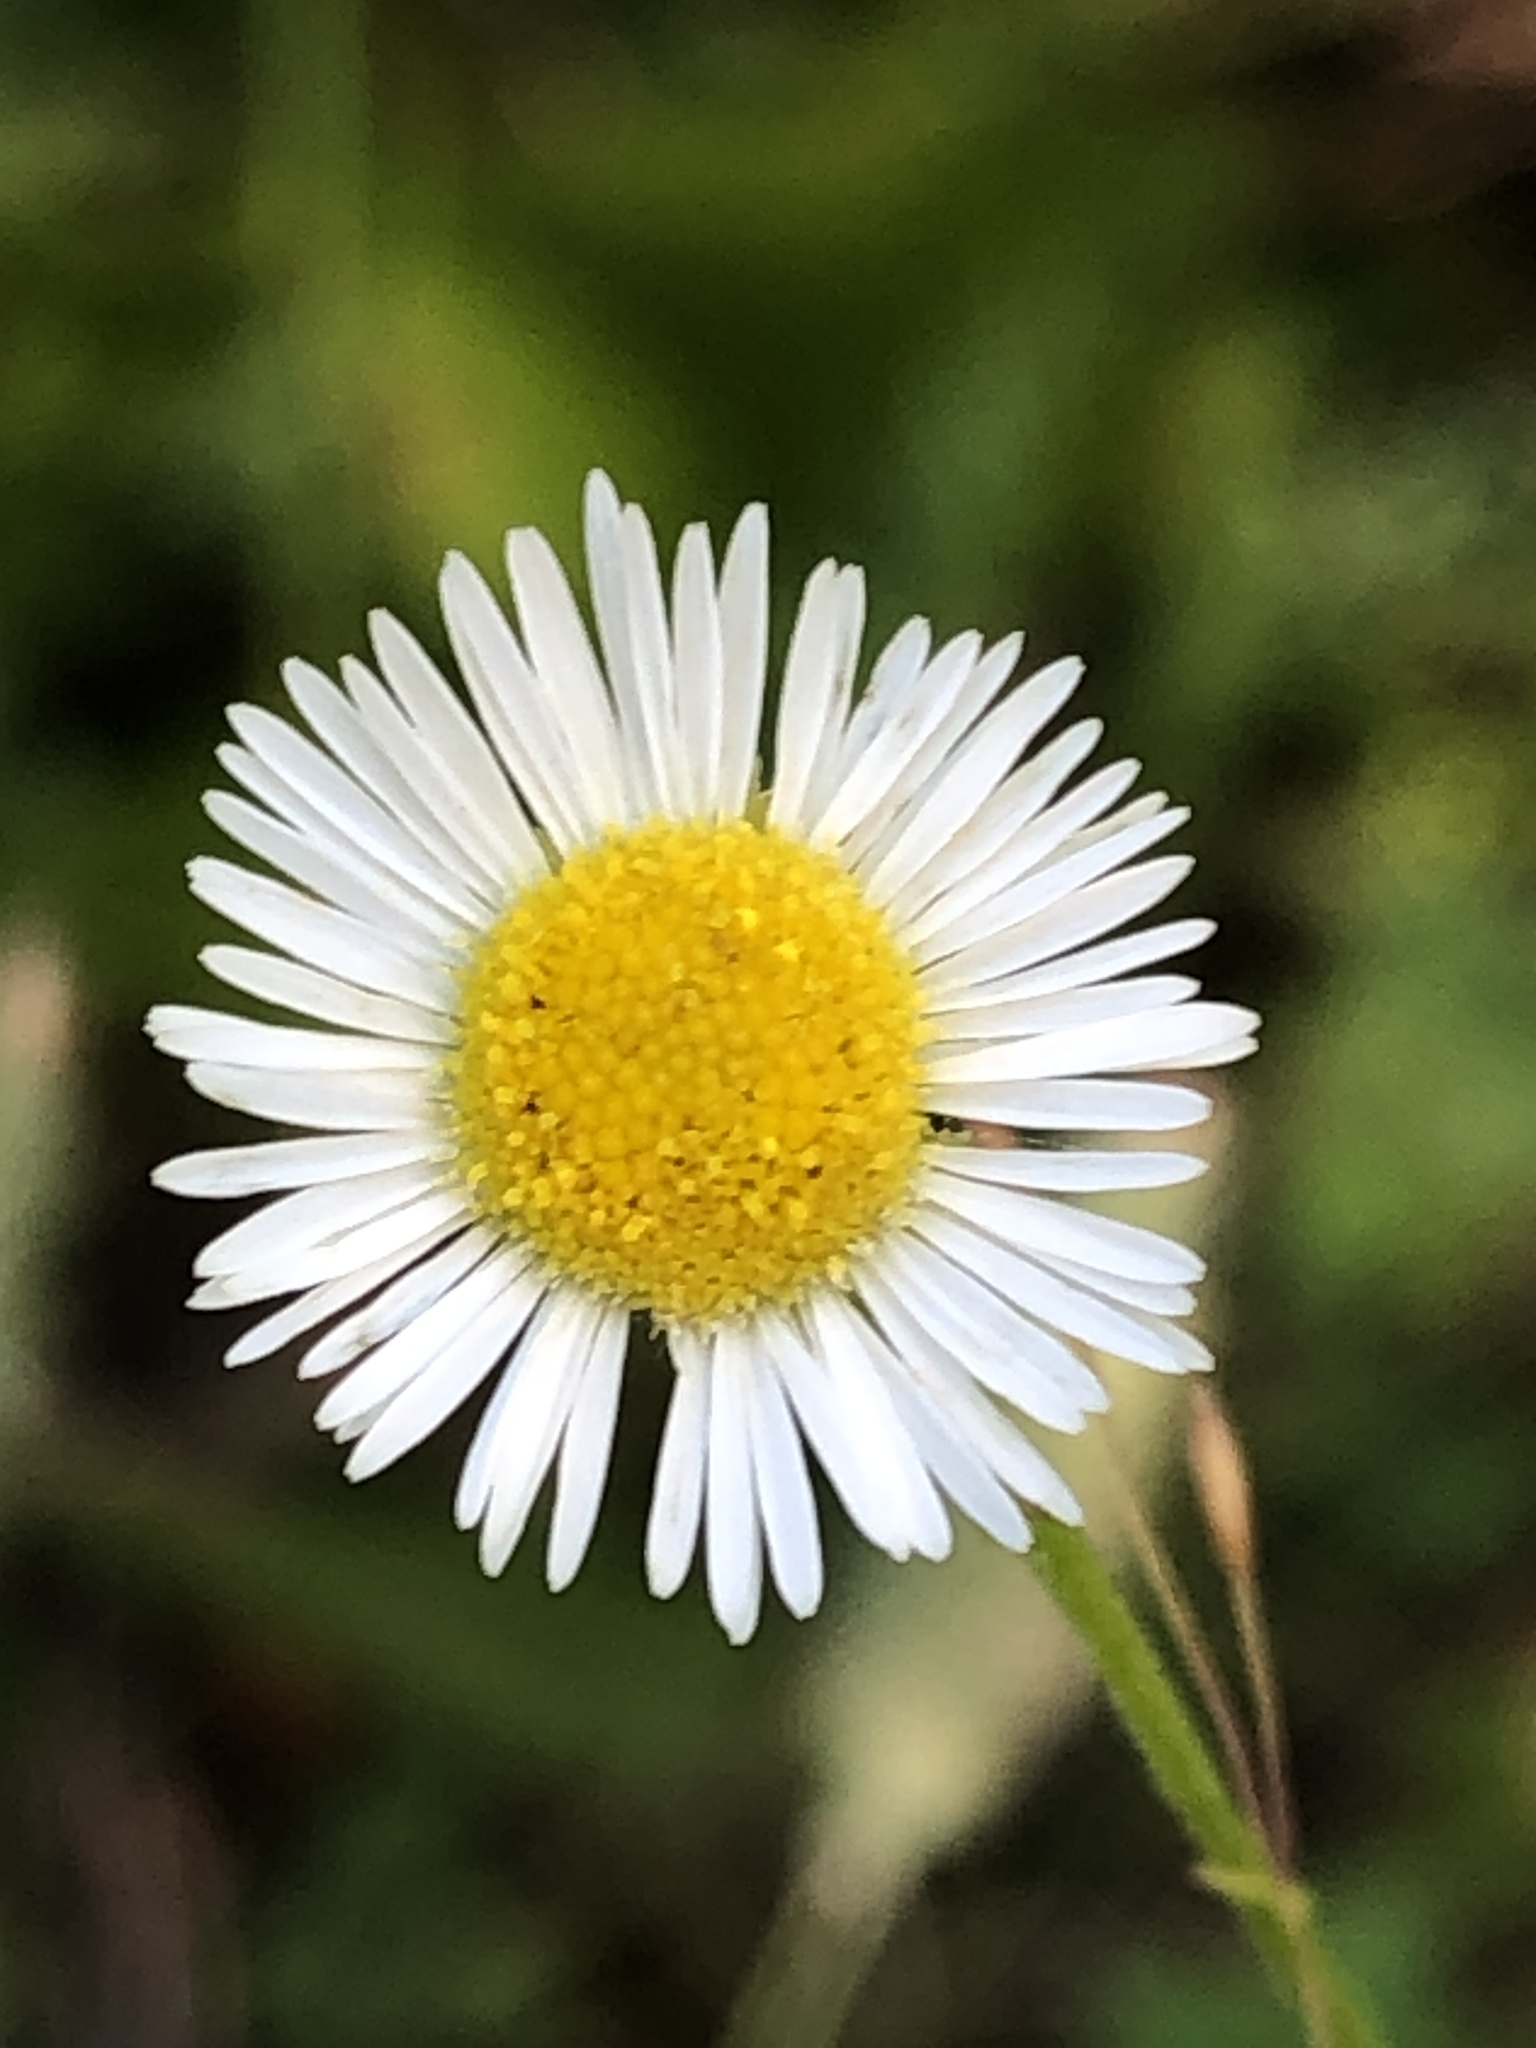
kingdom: Plantae
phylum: Tracheophyta
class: Magnoliopsida
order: Asterales
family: Asteraceae
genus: Erigeron
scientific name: Erigeron strigosus
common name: Common eastern fleabane
